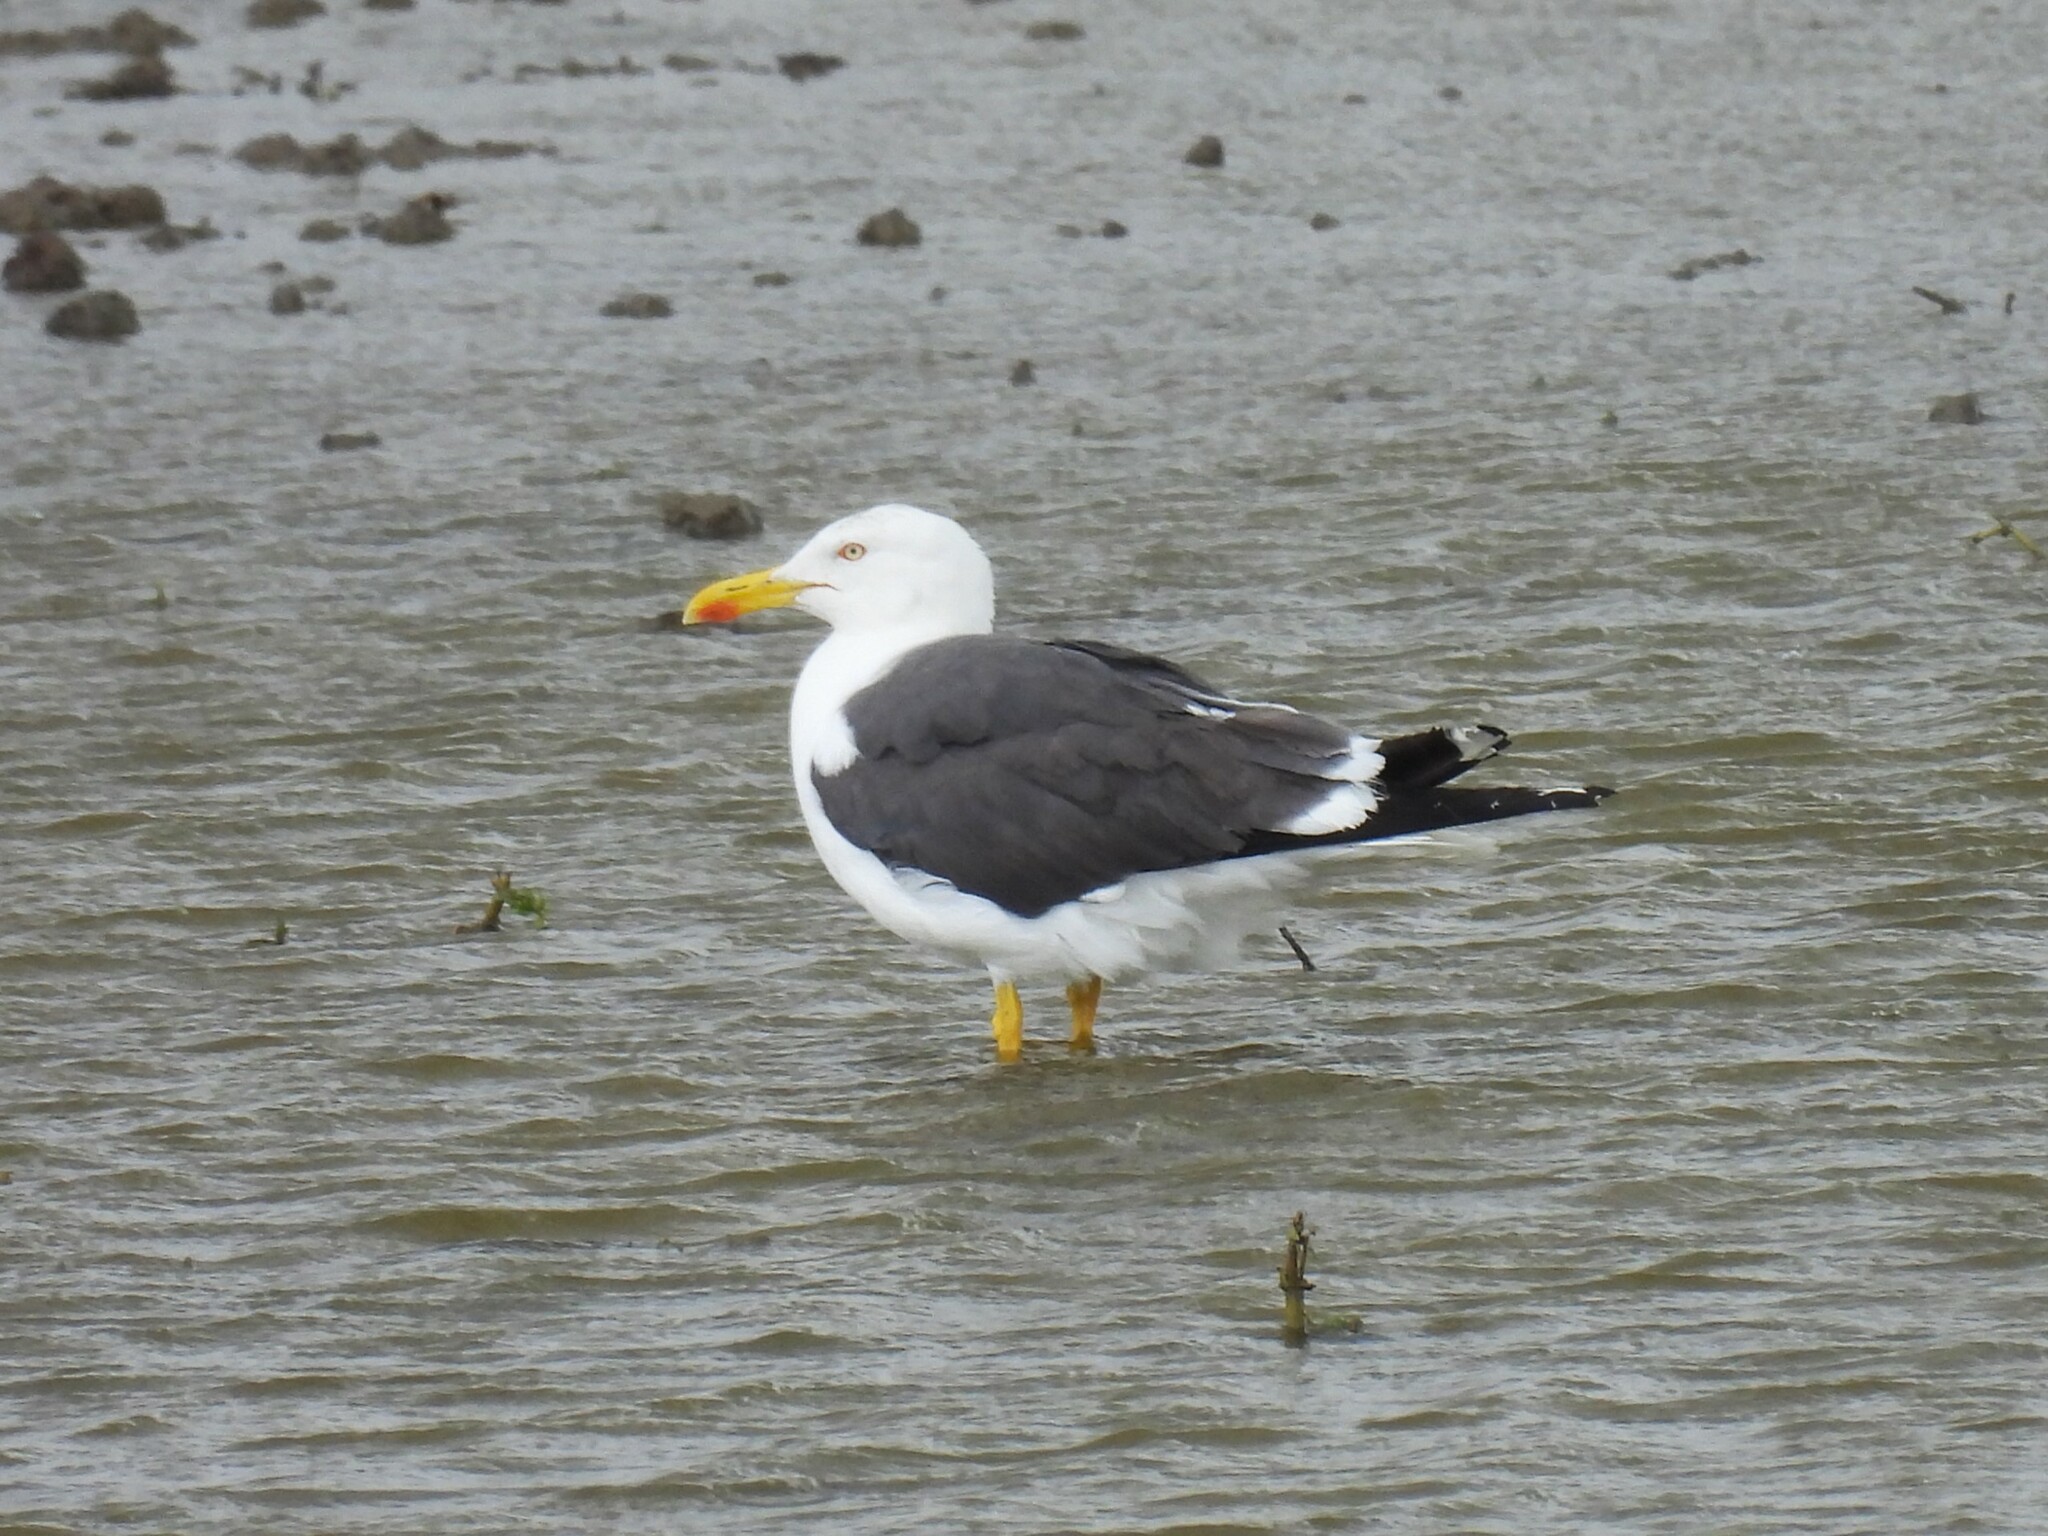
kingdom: Animalia
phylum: Chordata
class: Aves
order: Charadriiformes
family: Laridae
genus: Larus
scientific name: Larus fuscus
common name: Lesser black-backed gull
